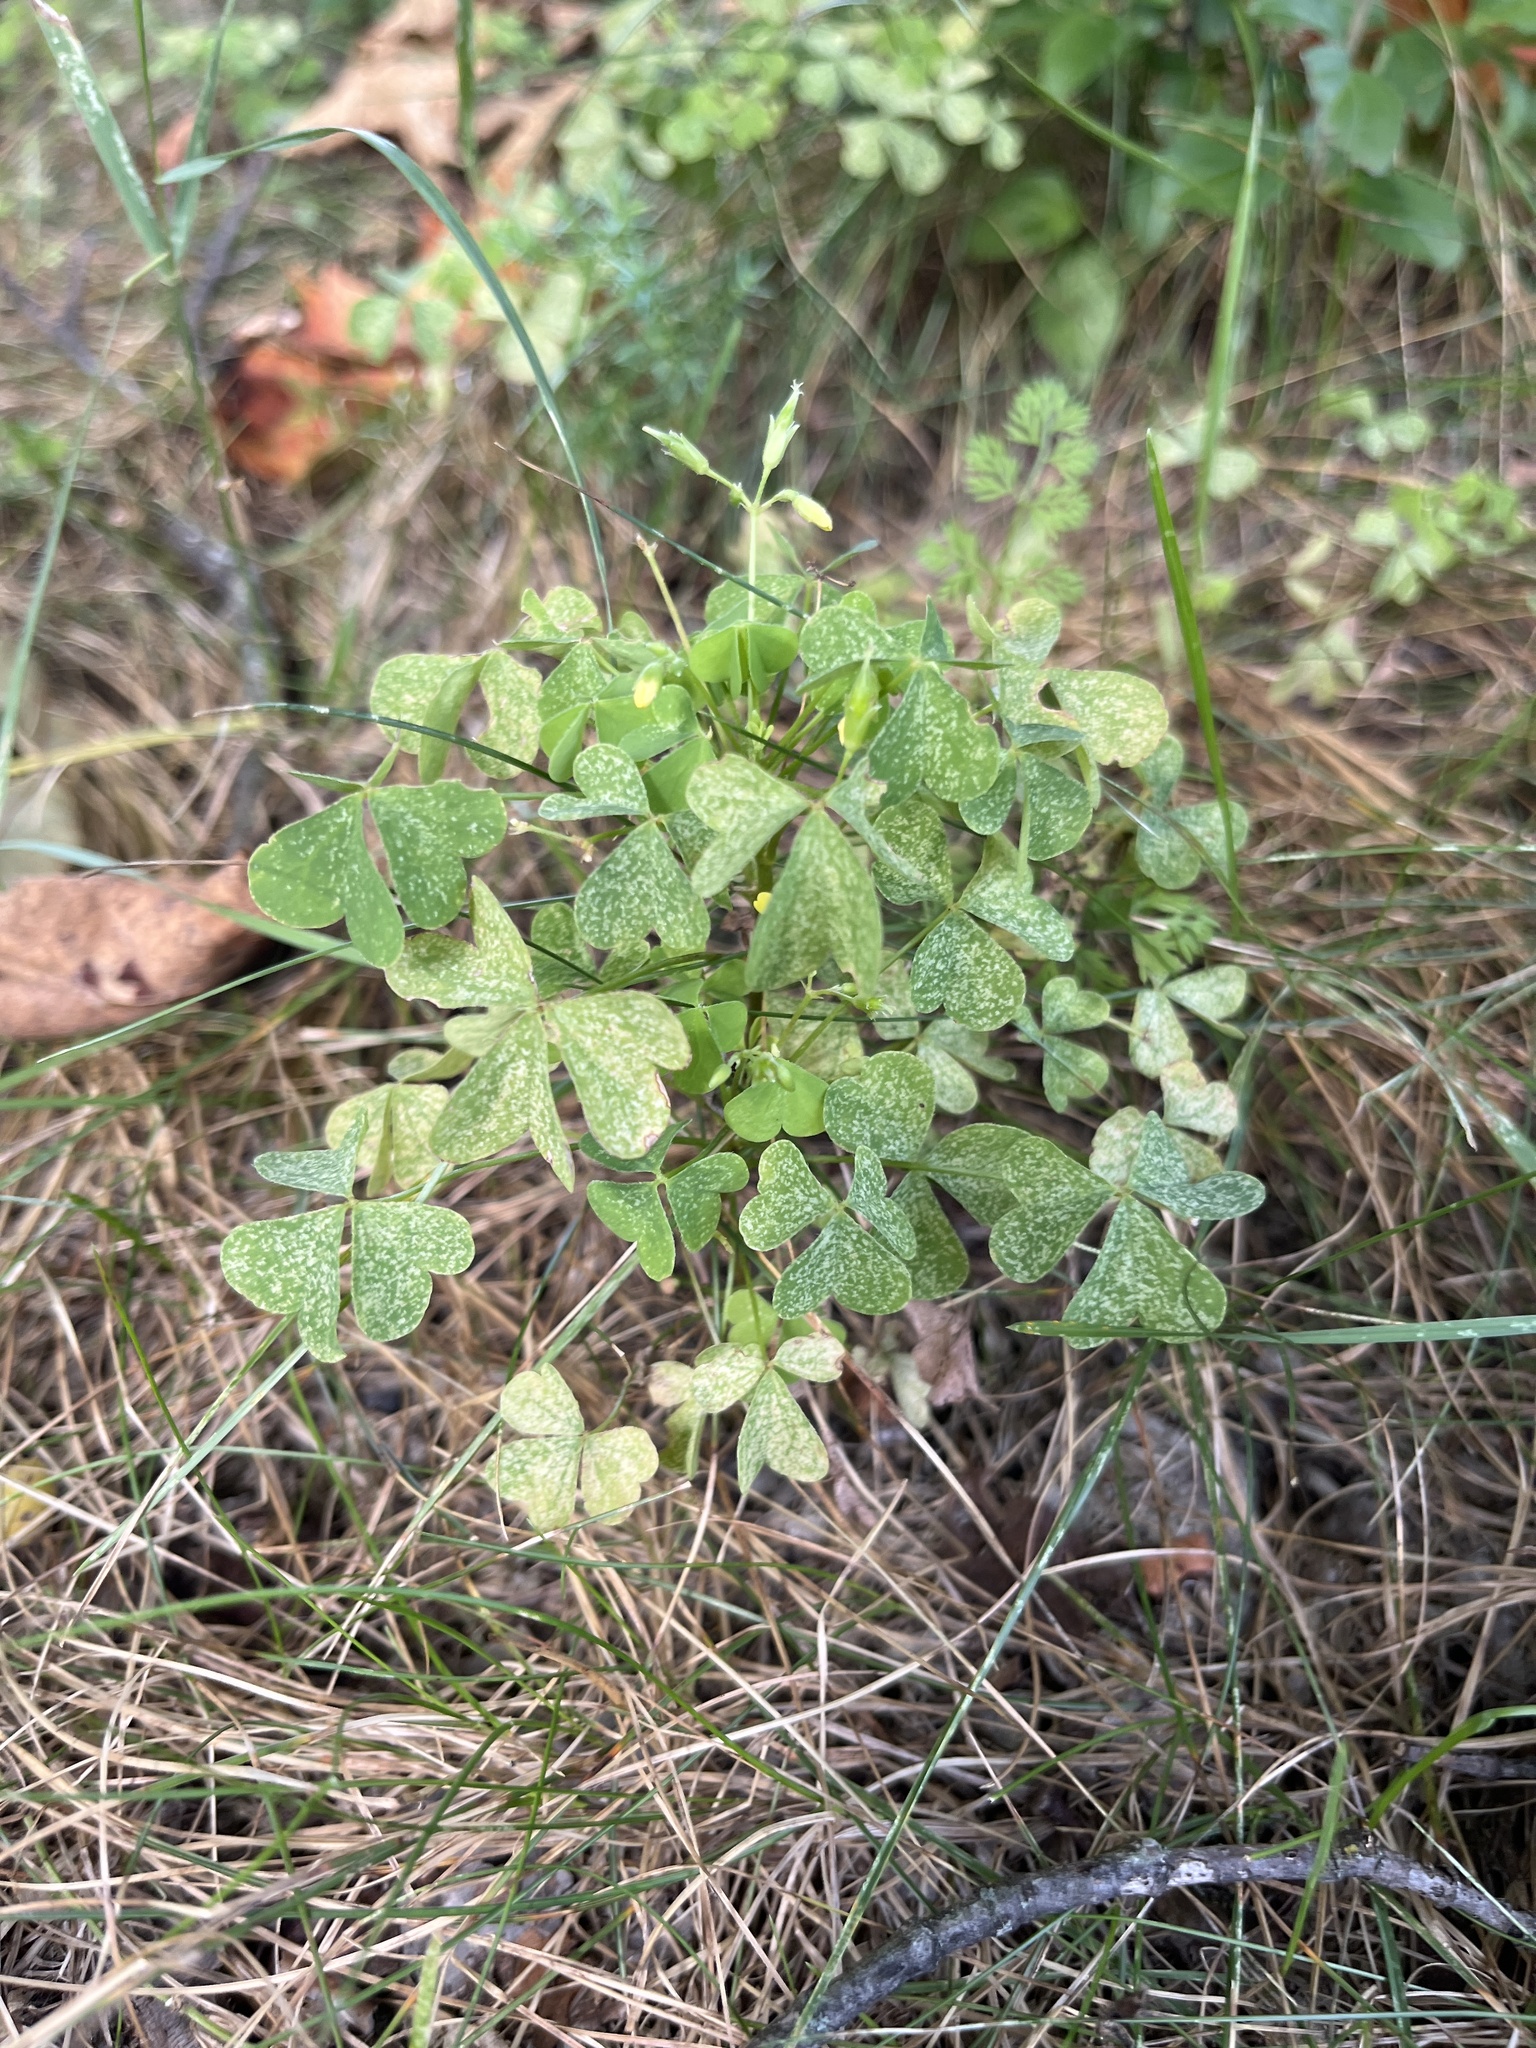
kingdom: Plantae
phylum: Tracheophyta
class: Magnoliopsida
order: Oxalidales
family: Oxalidaceae
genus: Oxalis
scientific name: Oxalis
